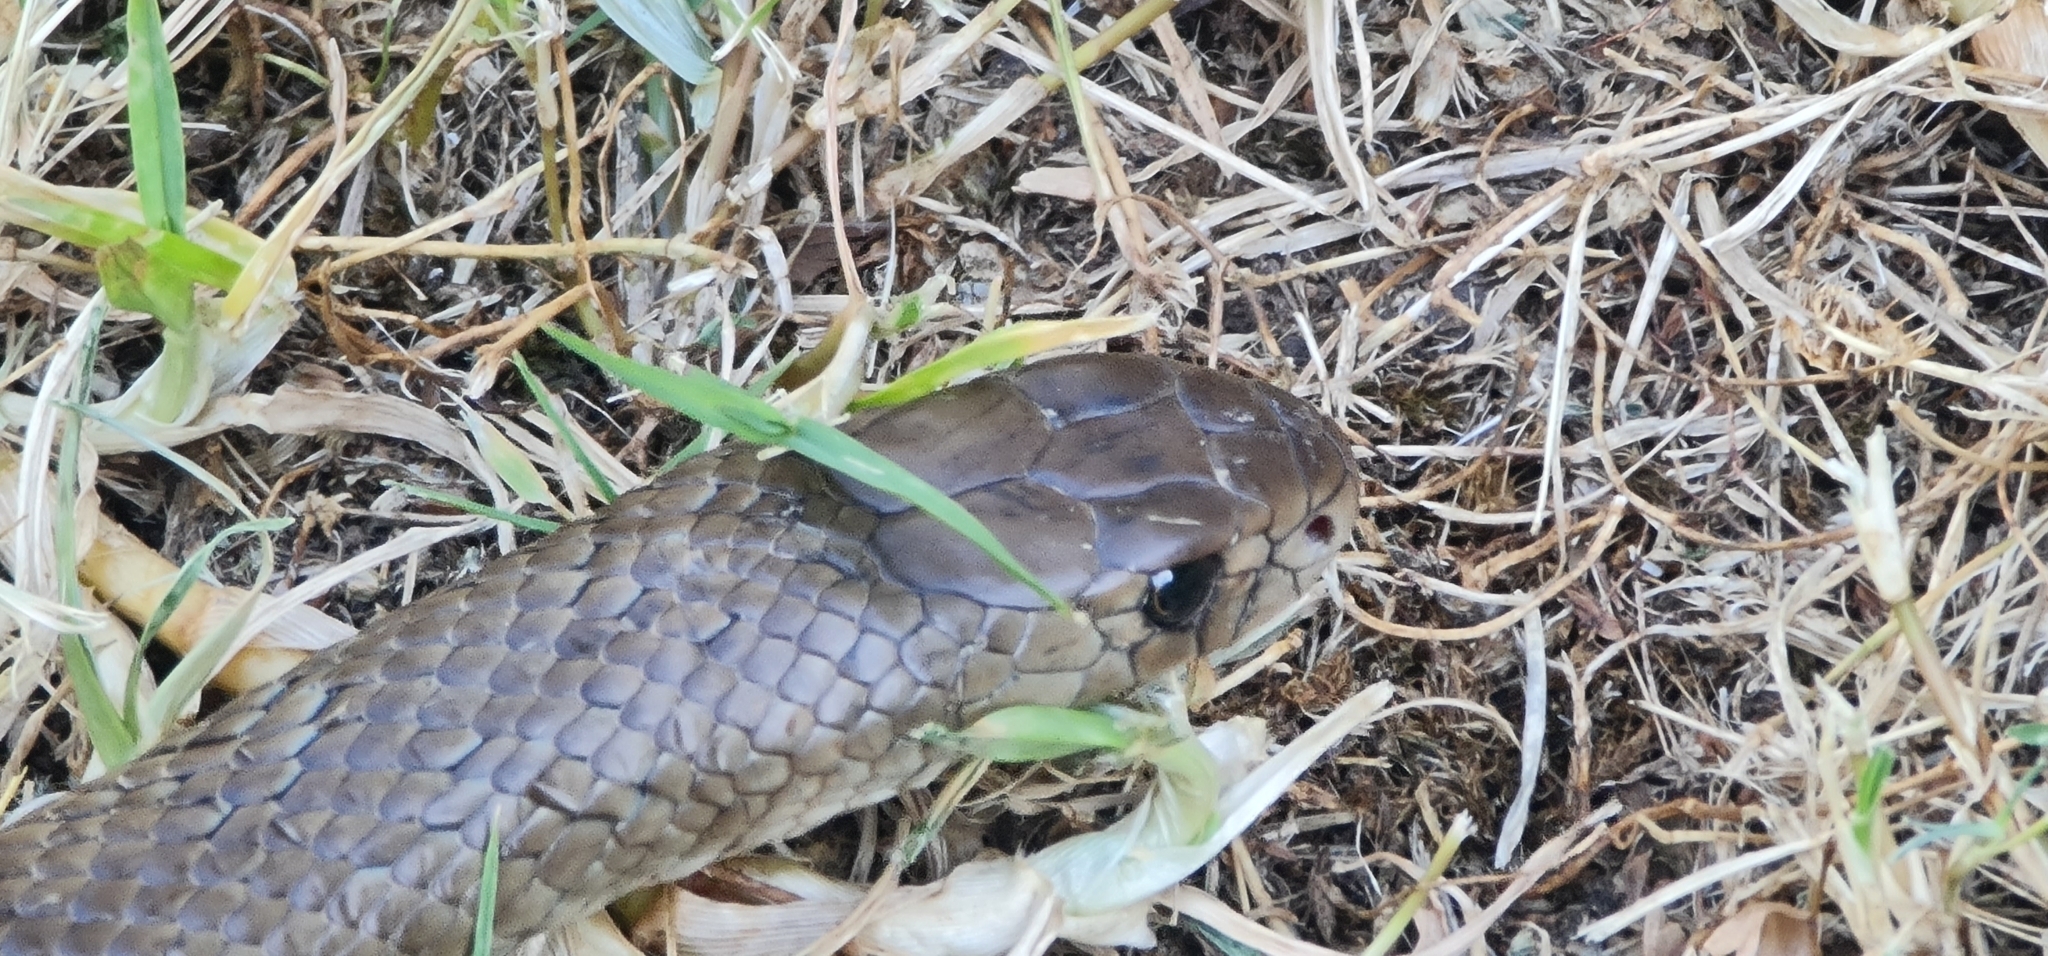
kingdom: Animalia
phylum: Chordata
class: Squamata
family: Elapidae
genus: Pseudonaja
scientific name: Pseudonaja textilis
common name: Eastern brown snake
